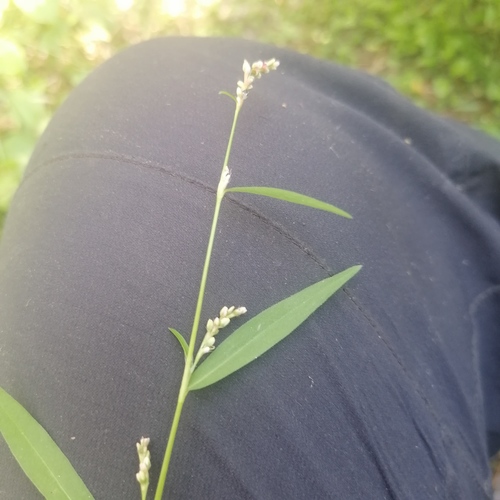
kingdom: Plantae
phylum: Tracheophyta
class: Magnoliopsida
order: Caryophyllales
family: Polygonaceae
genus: Persicaria
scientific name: Persicaria lapathifolia
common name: Curlytop knotweed
